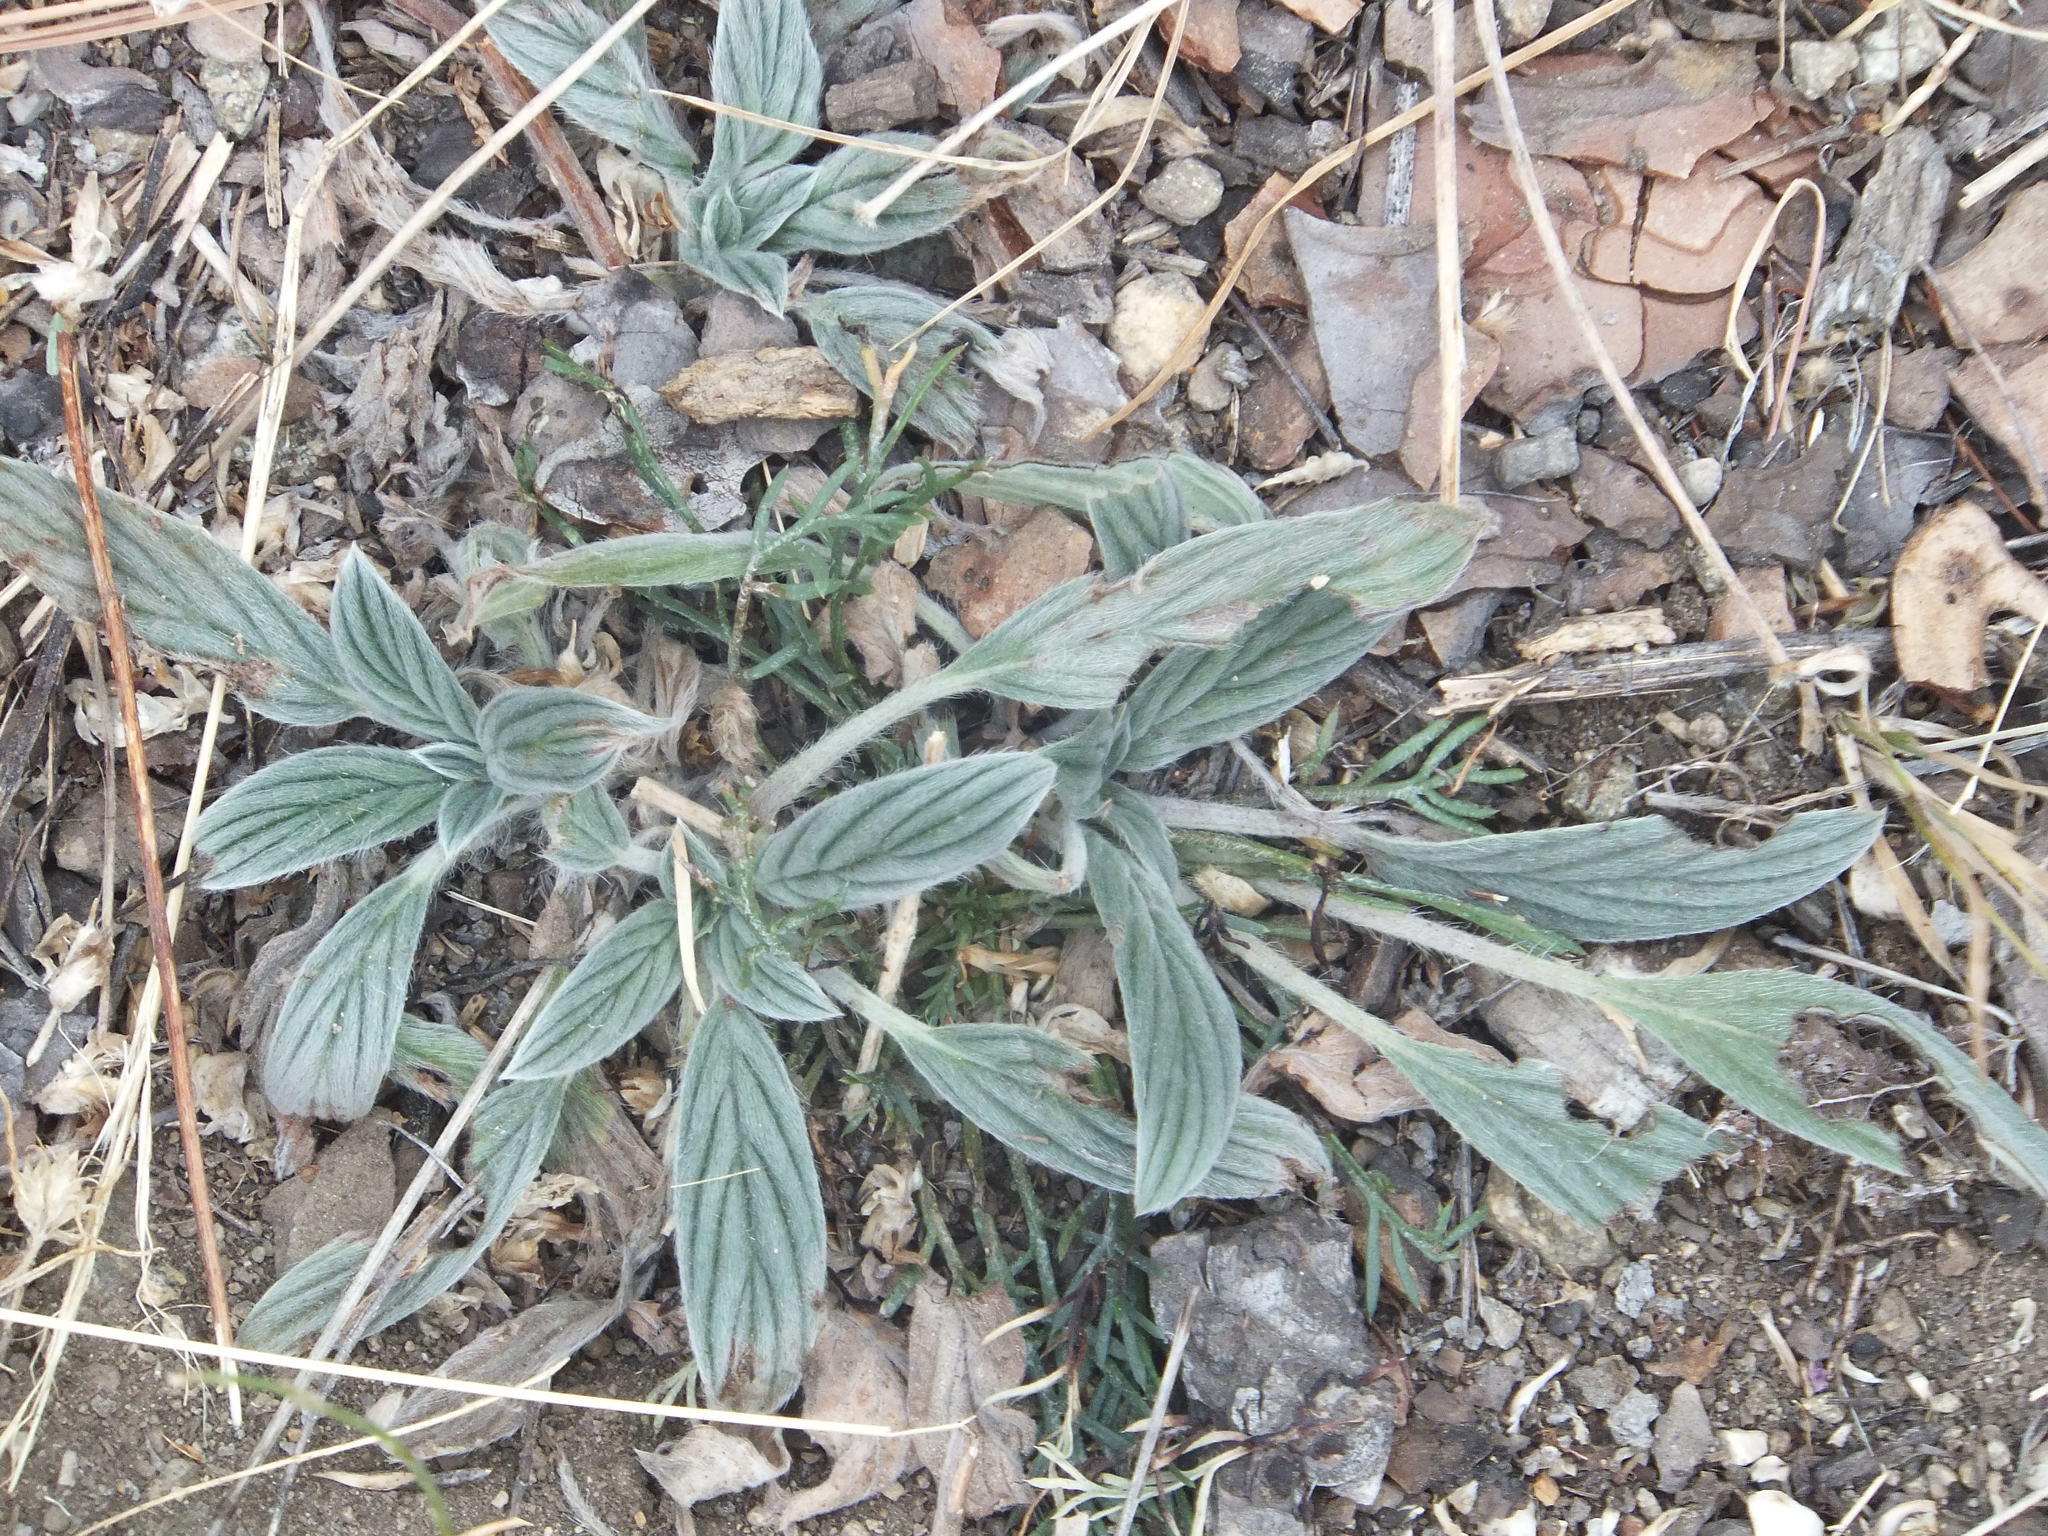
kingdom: Plantae
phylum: Tracheophyta
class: Magnoliopsida
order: Boraginales
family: Hydrophyllaceae
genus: Phacelia
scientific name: Phacelia hastata
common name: Silver-leaved phacelia
